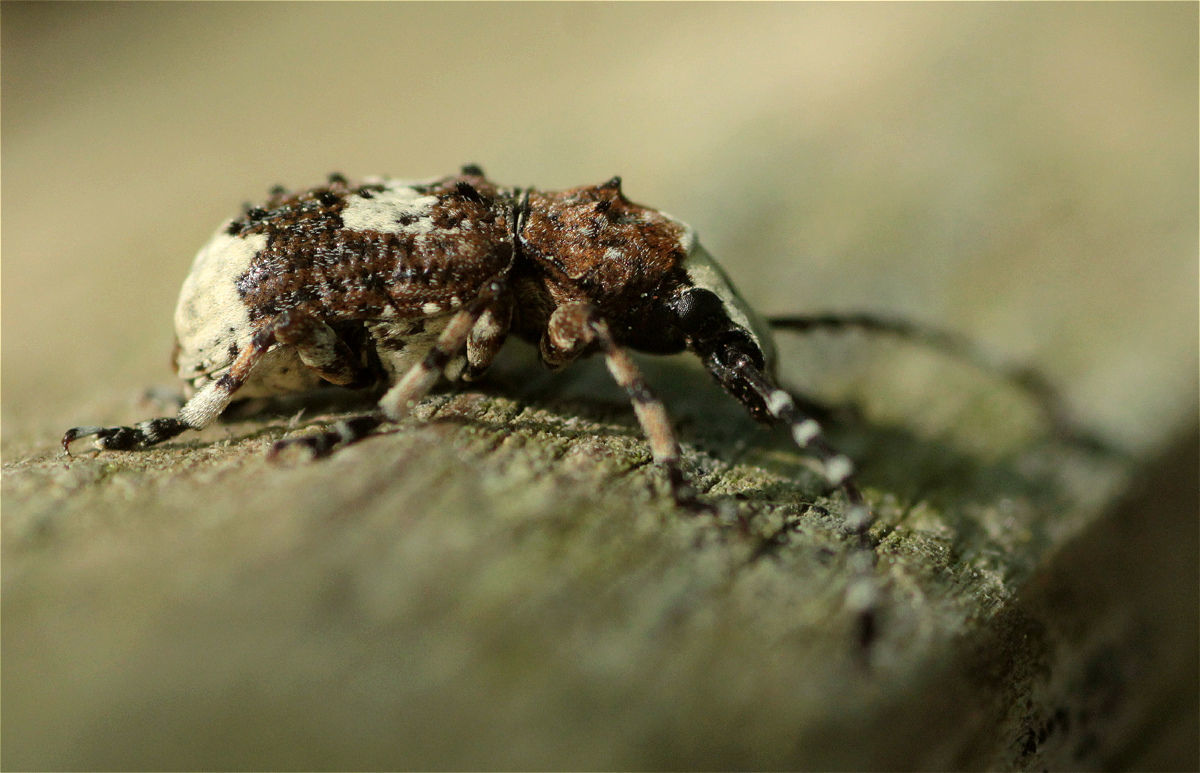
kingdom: Animalia
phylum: Arthropoda
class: Insecta
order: Coleoptera
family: Anthribidae
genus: Platystomos
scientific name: Platystomos albinus
